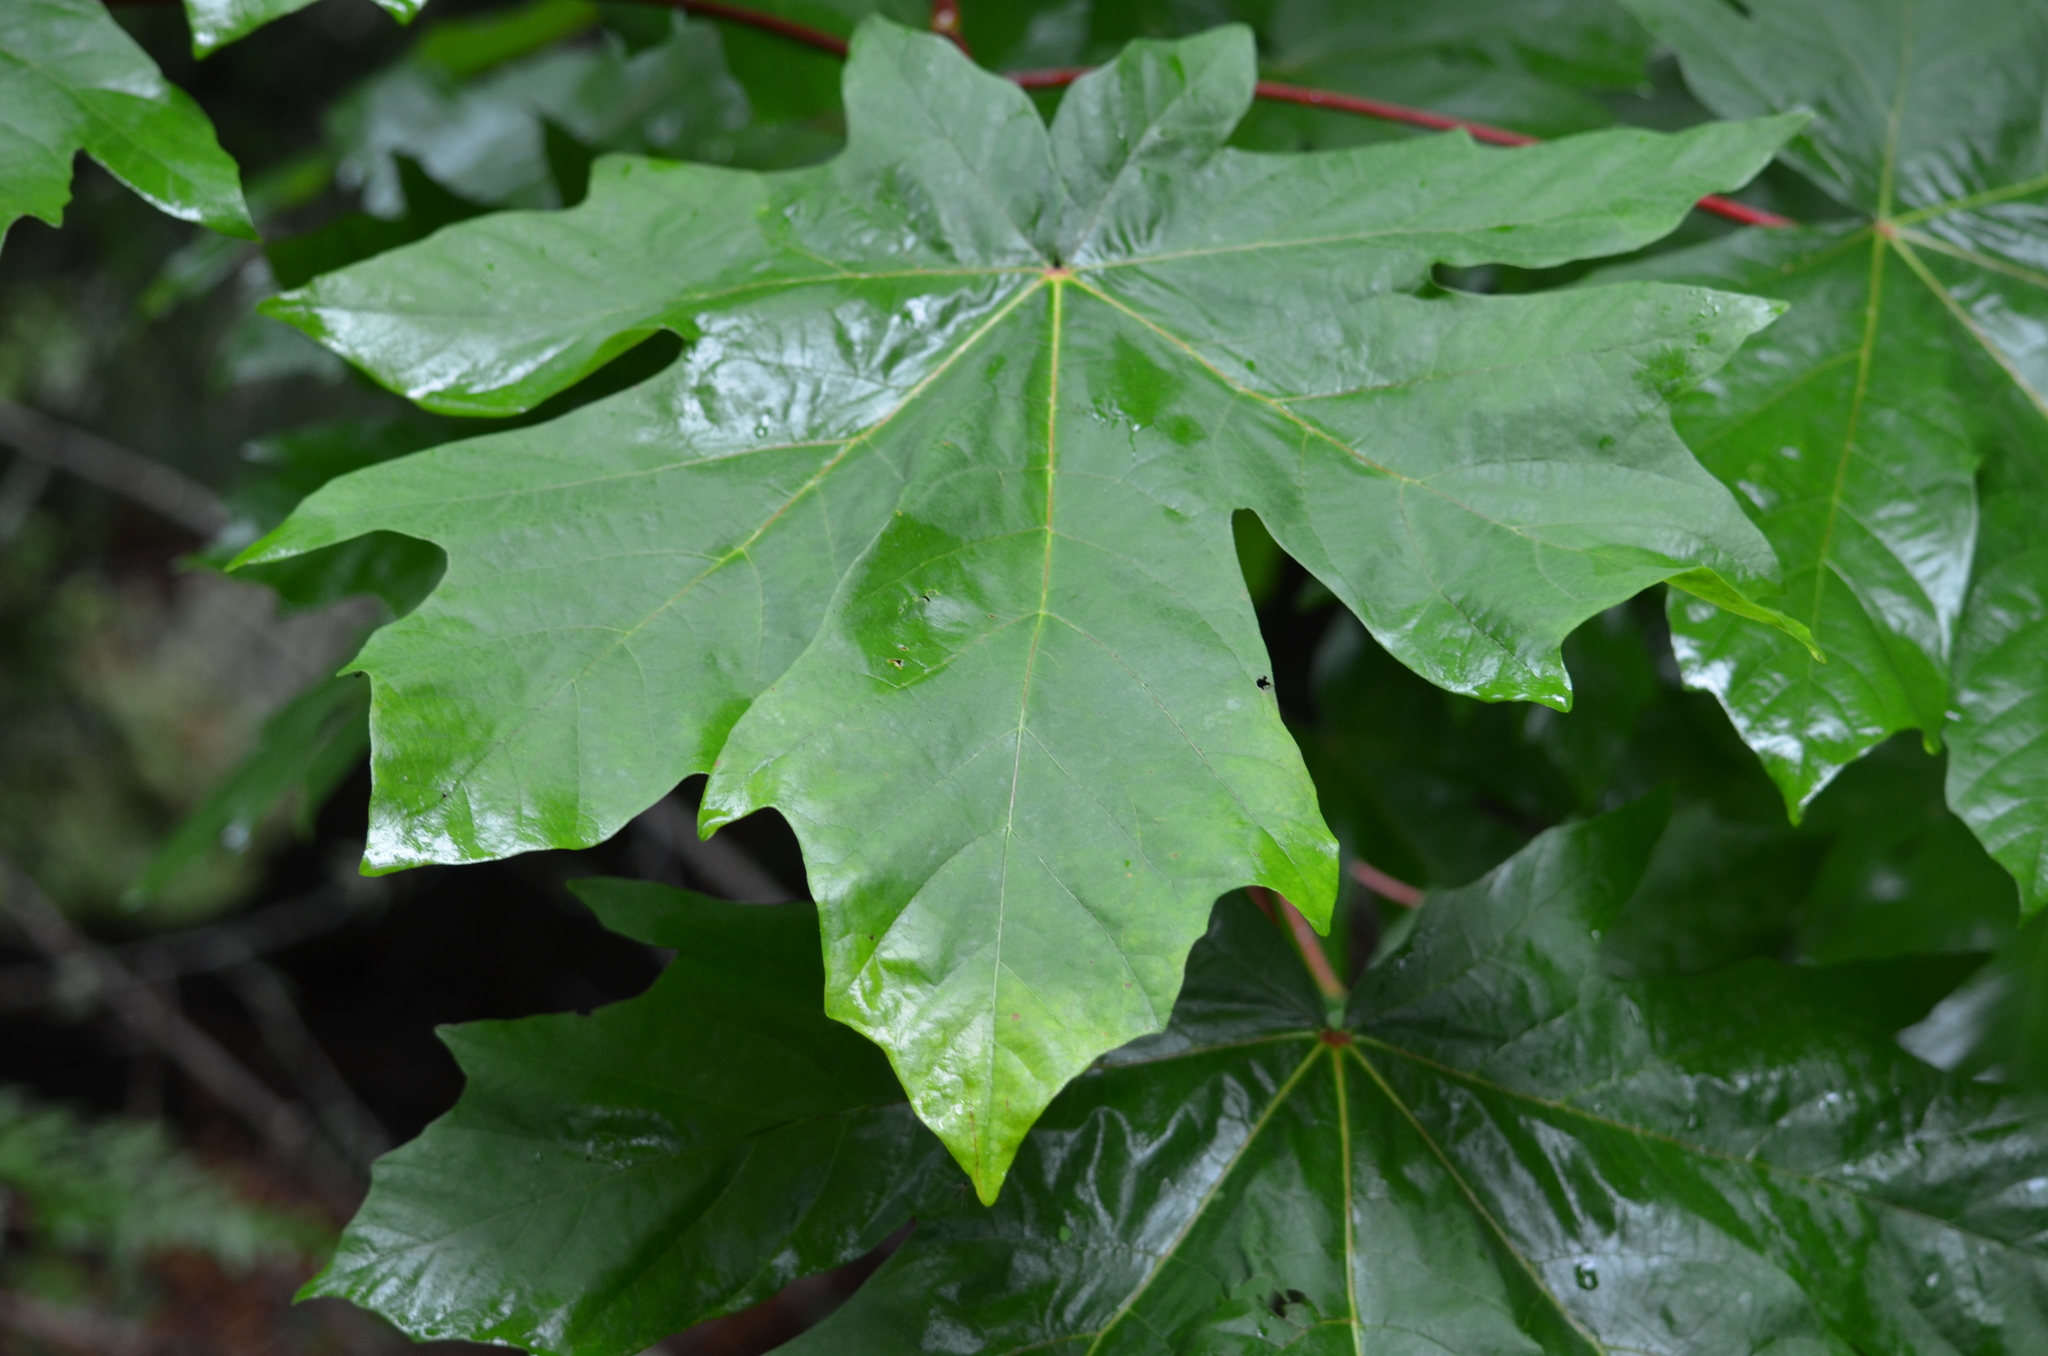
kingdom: Plantae
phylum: Tracheophyta
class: Magnoliopsida
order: Sapindales
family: Sapindaceae
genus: Acer
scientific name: Acer macrophyllum
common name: Oregon maple
